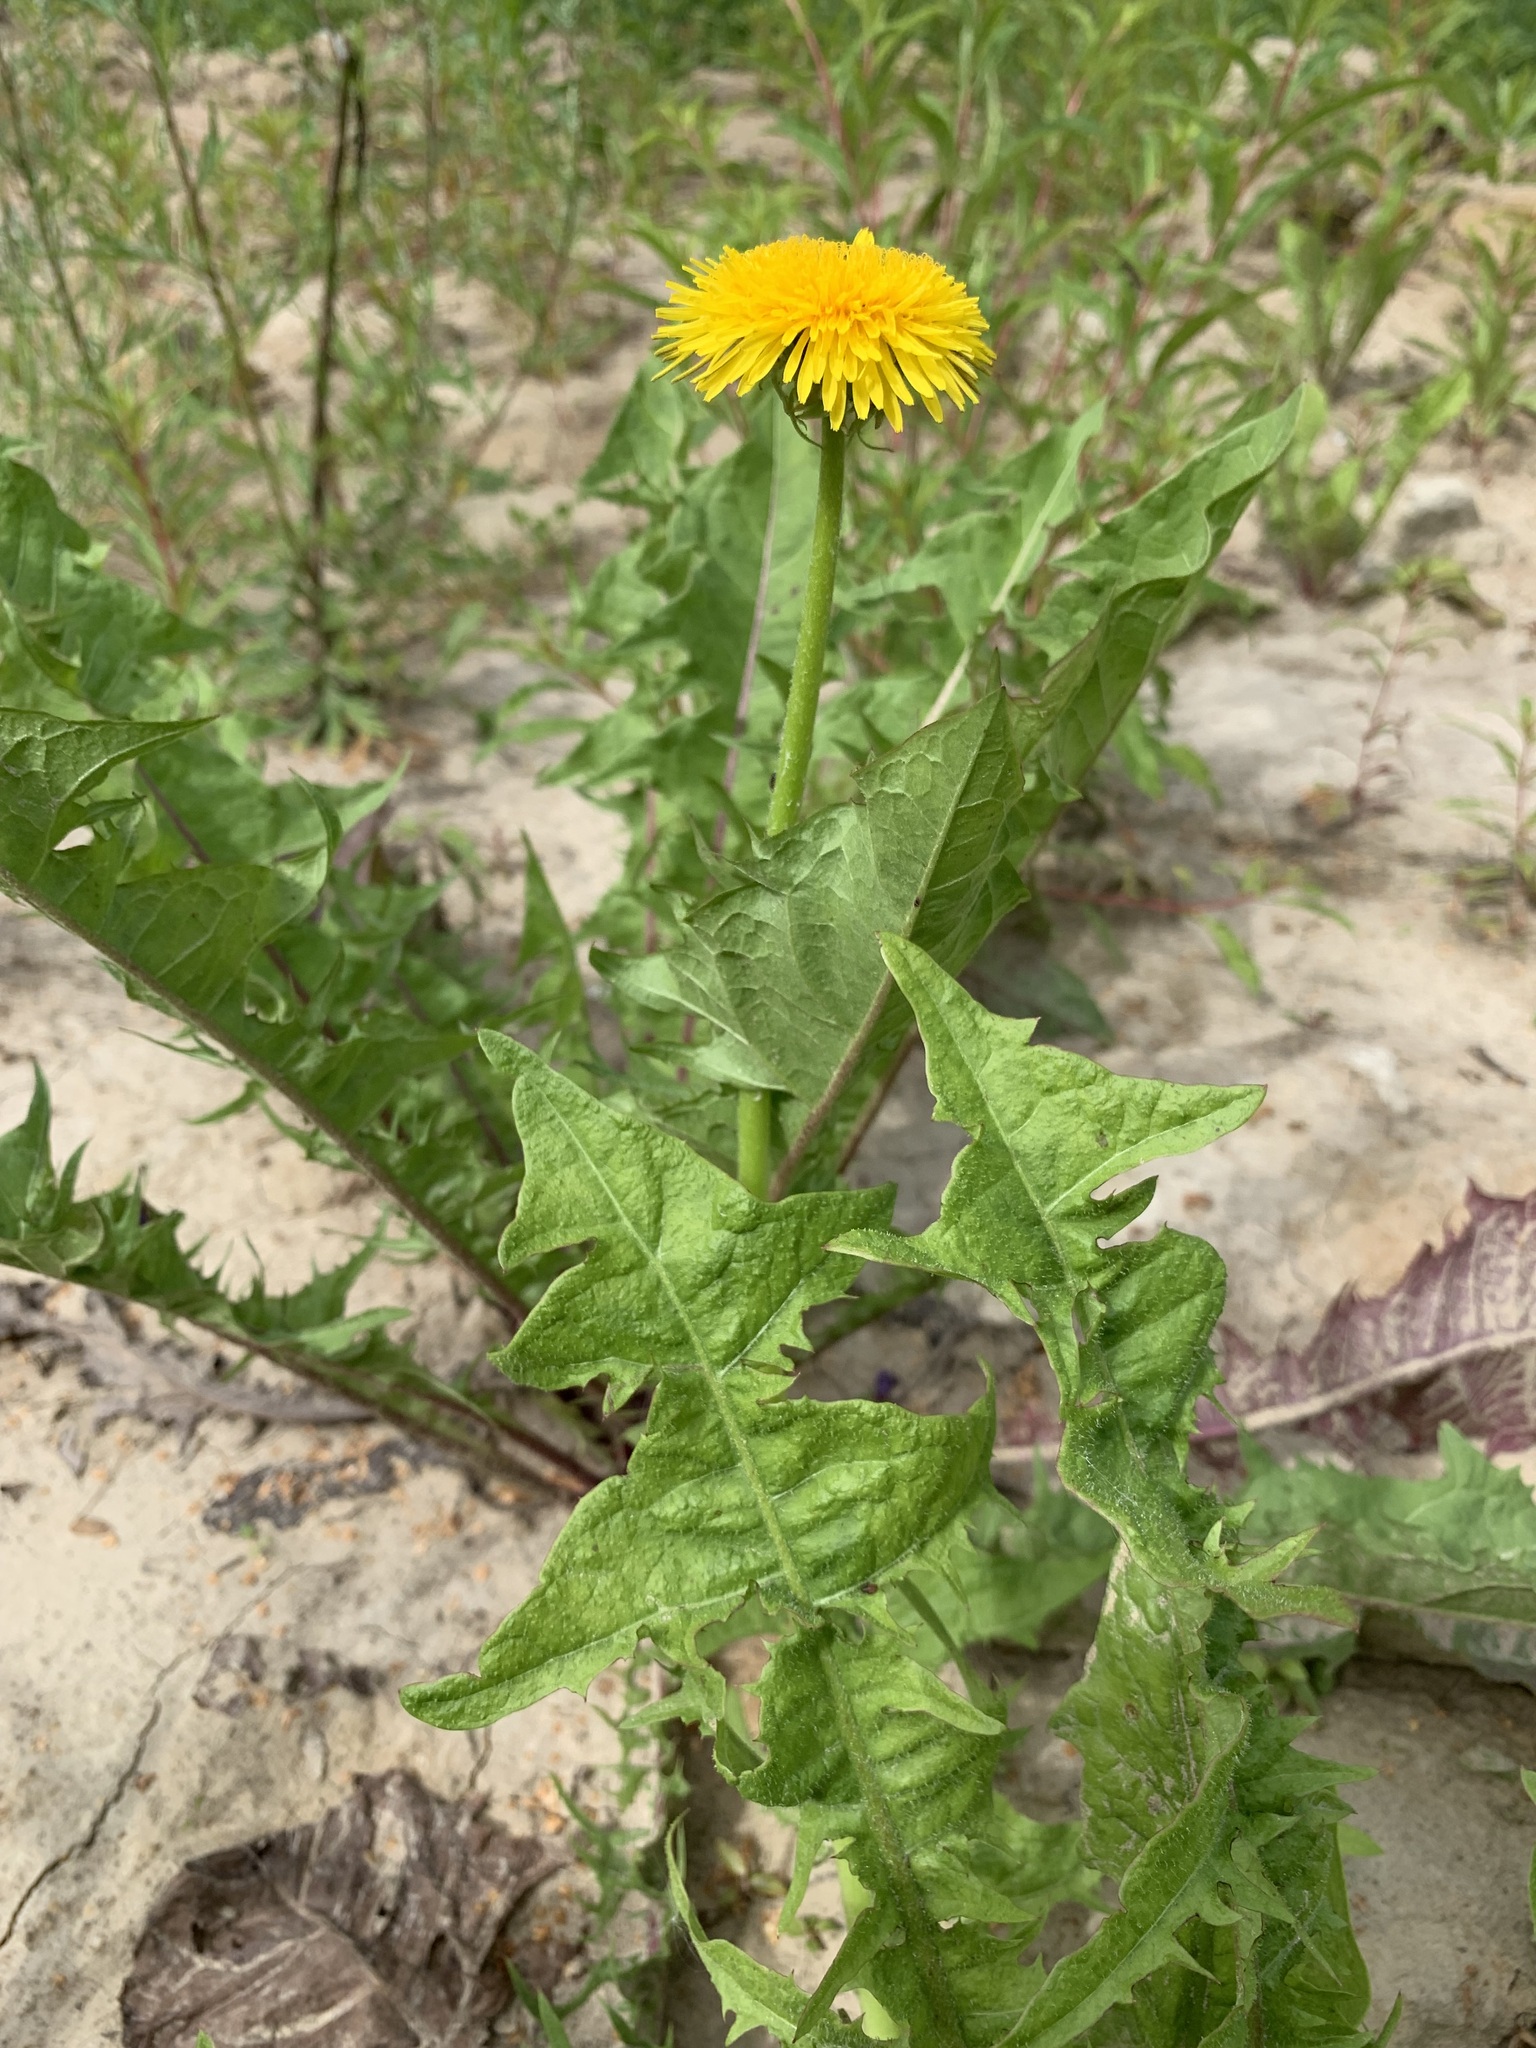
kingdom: Plantae
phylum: Tracheophyta
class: Magnoliopsida
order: Asterales
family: Asteraceae
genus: Taraxacum
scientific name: Taraxacum officinale
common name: Common dandelion
